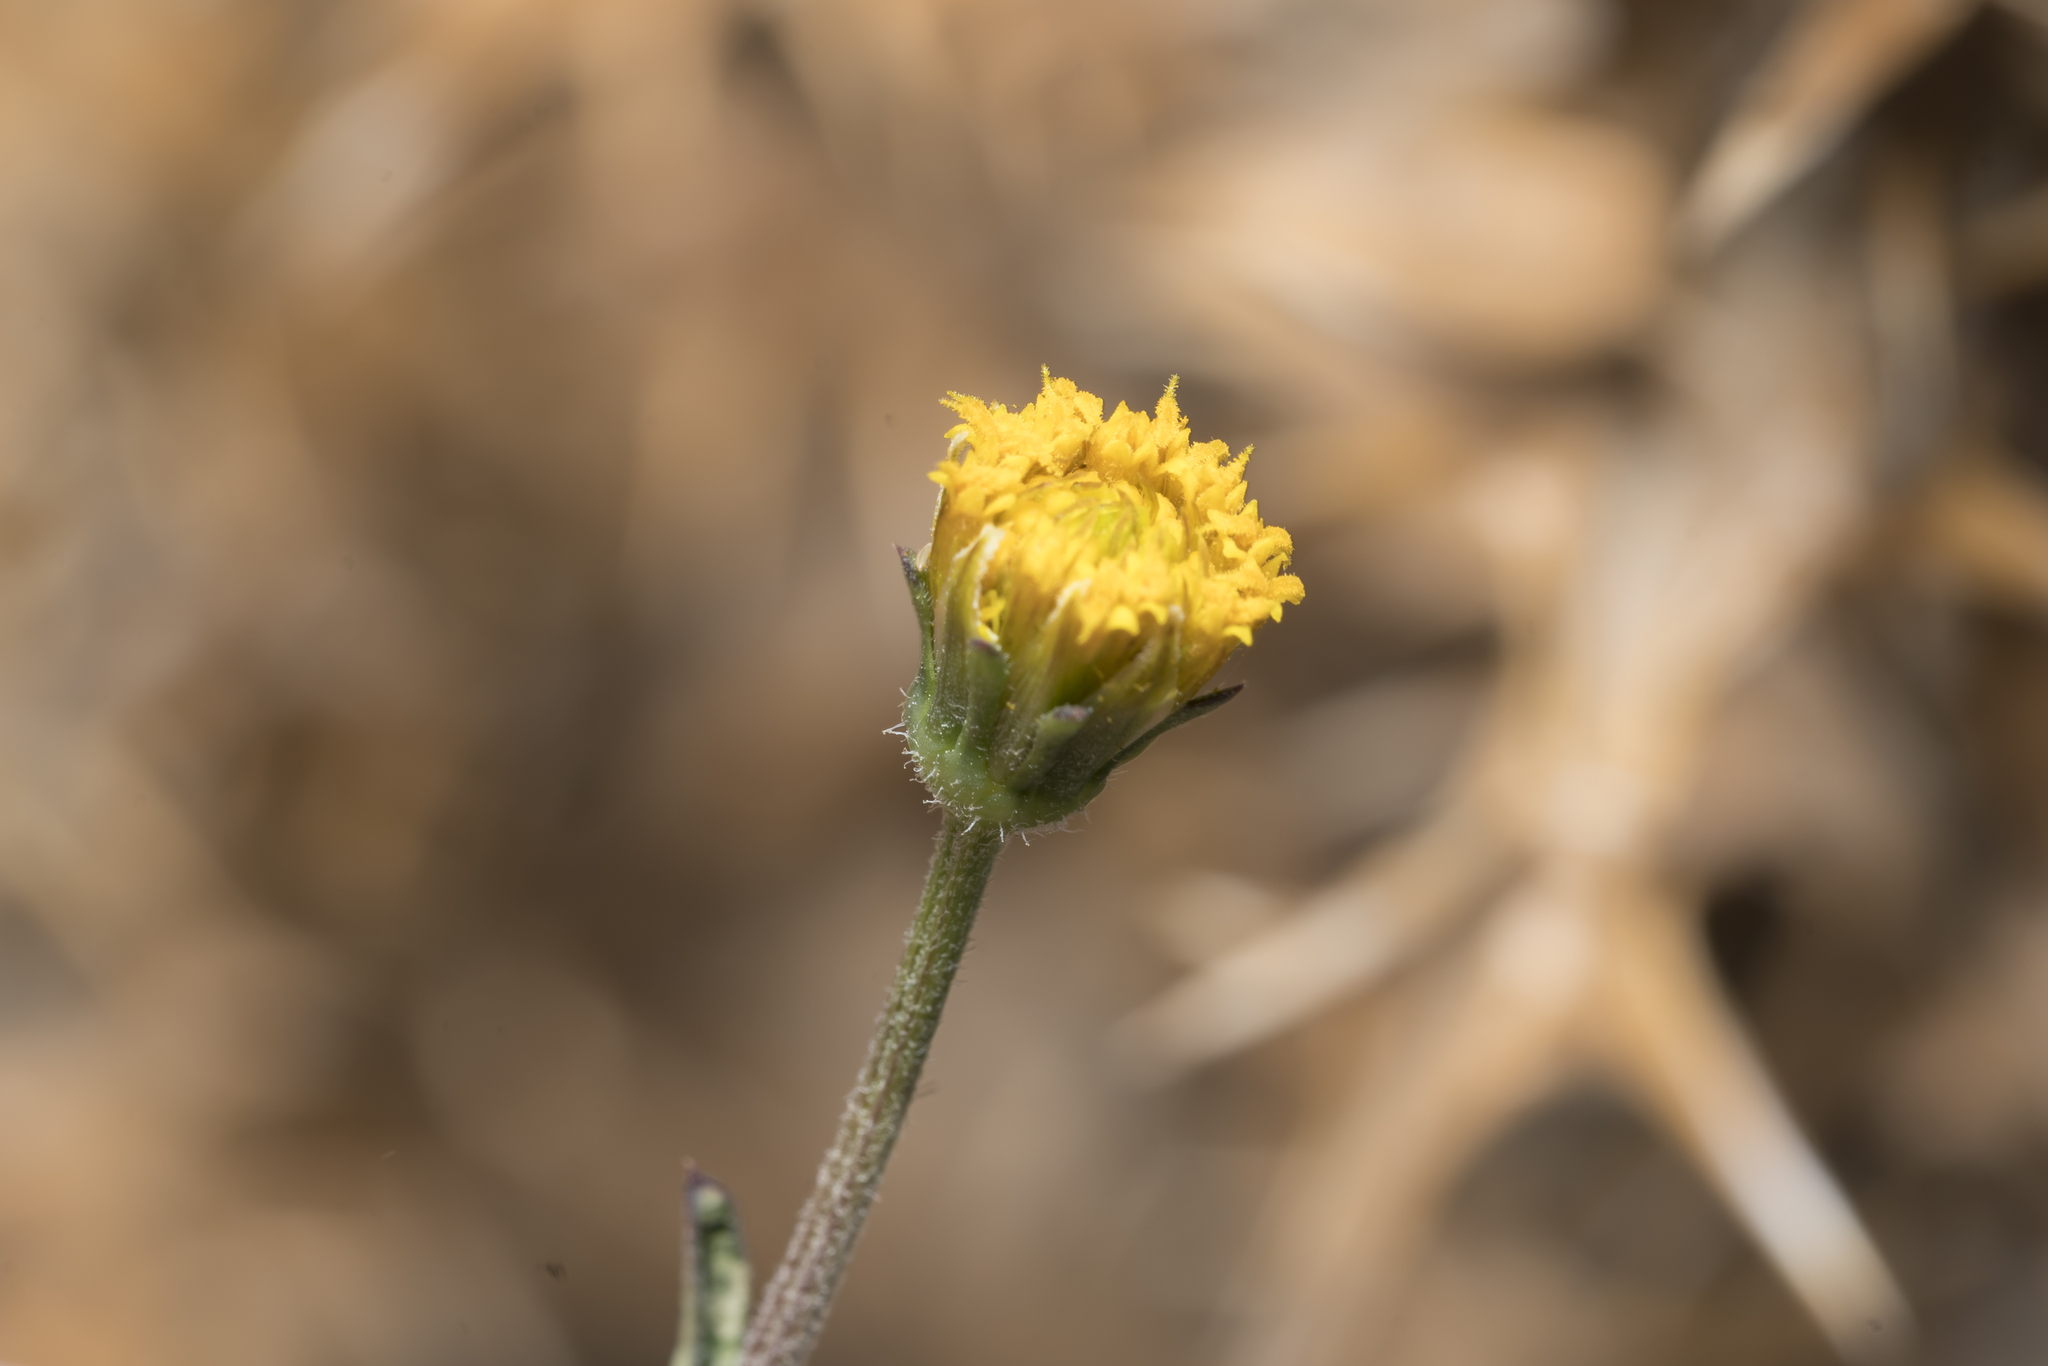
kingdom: Plantae
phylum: Tracheophyta
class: Magnoliopsida
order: Asterales
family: Asteraceae
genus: Bidens
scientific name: Bidens pilosa
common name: Black-jack
